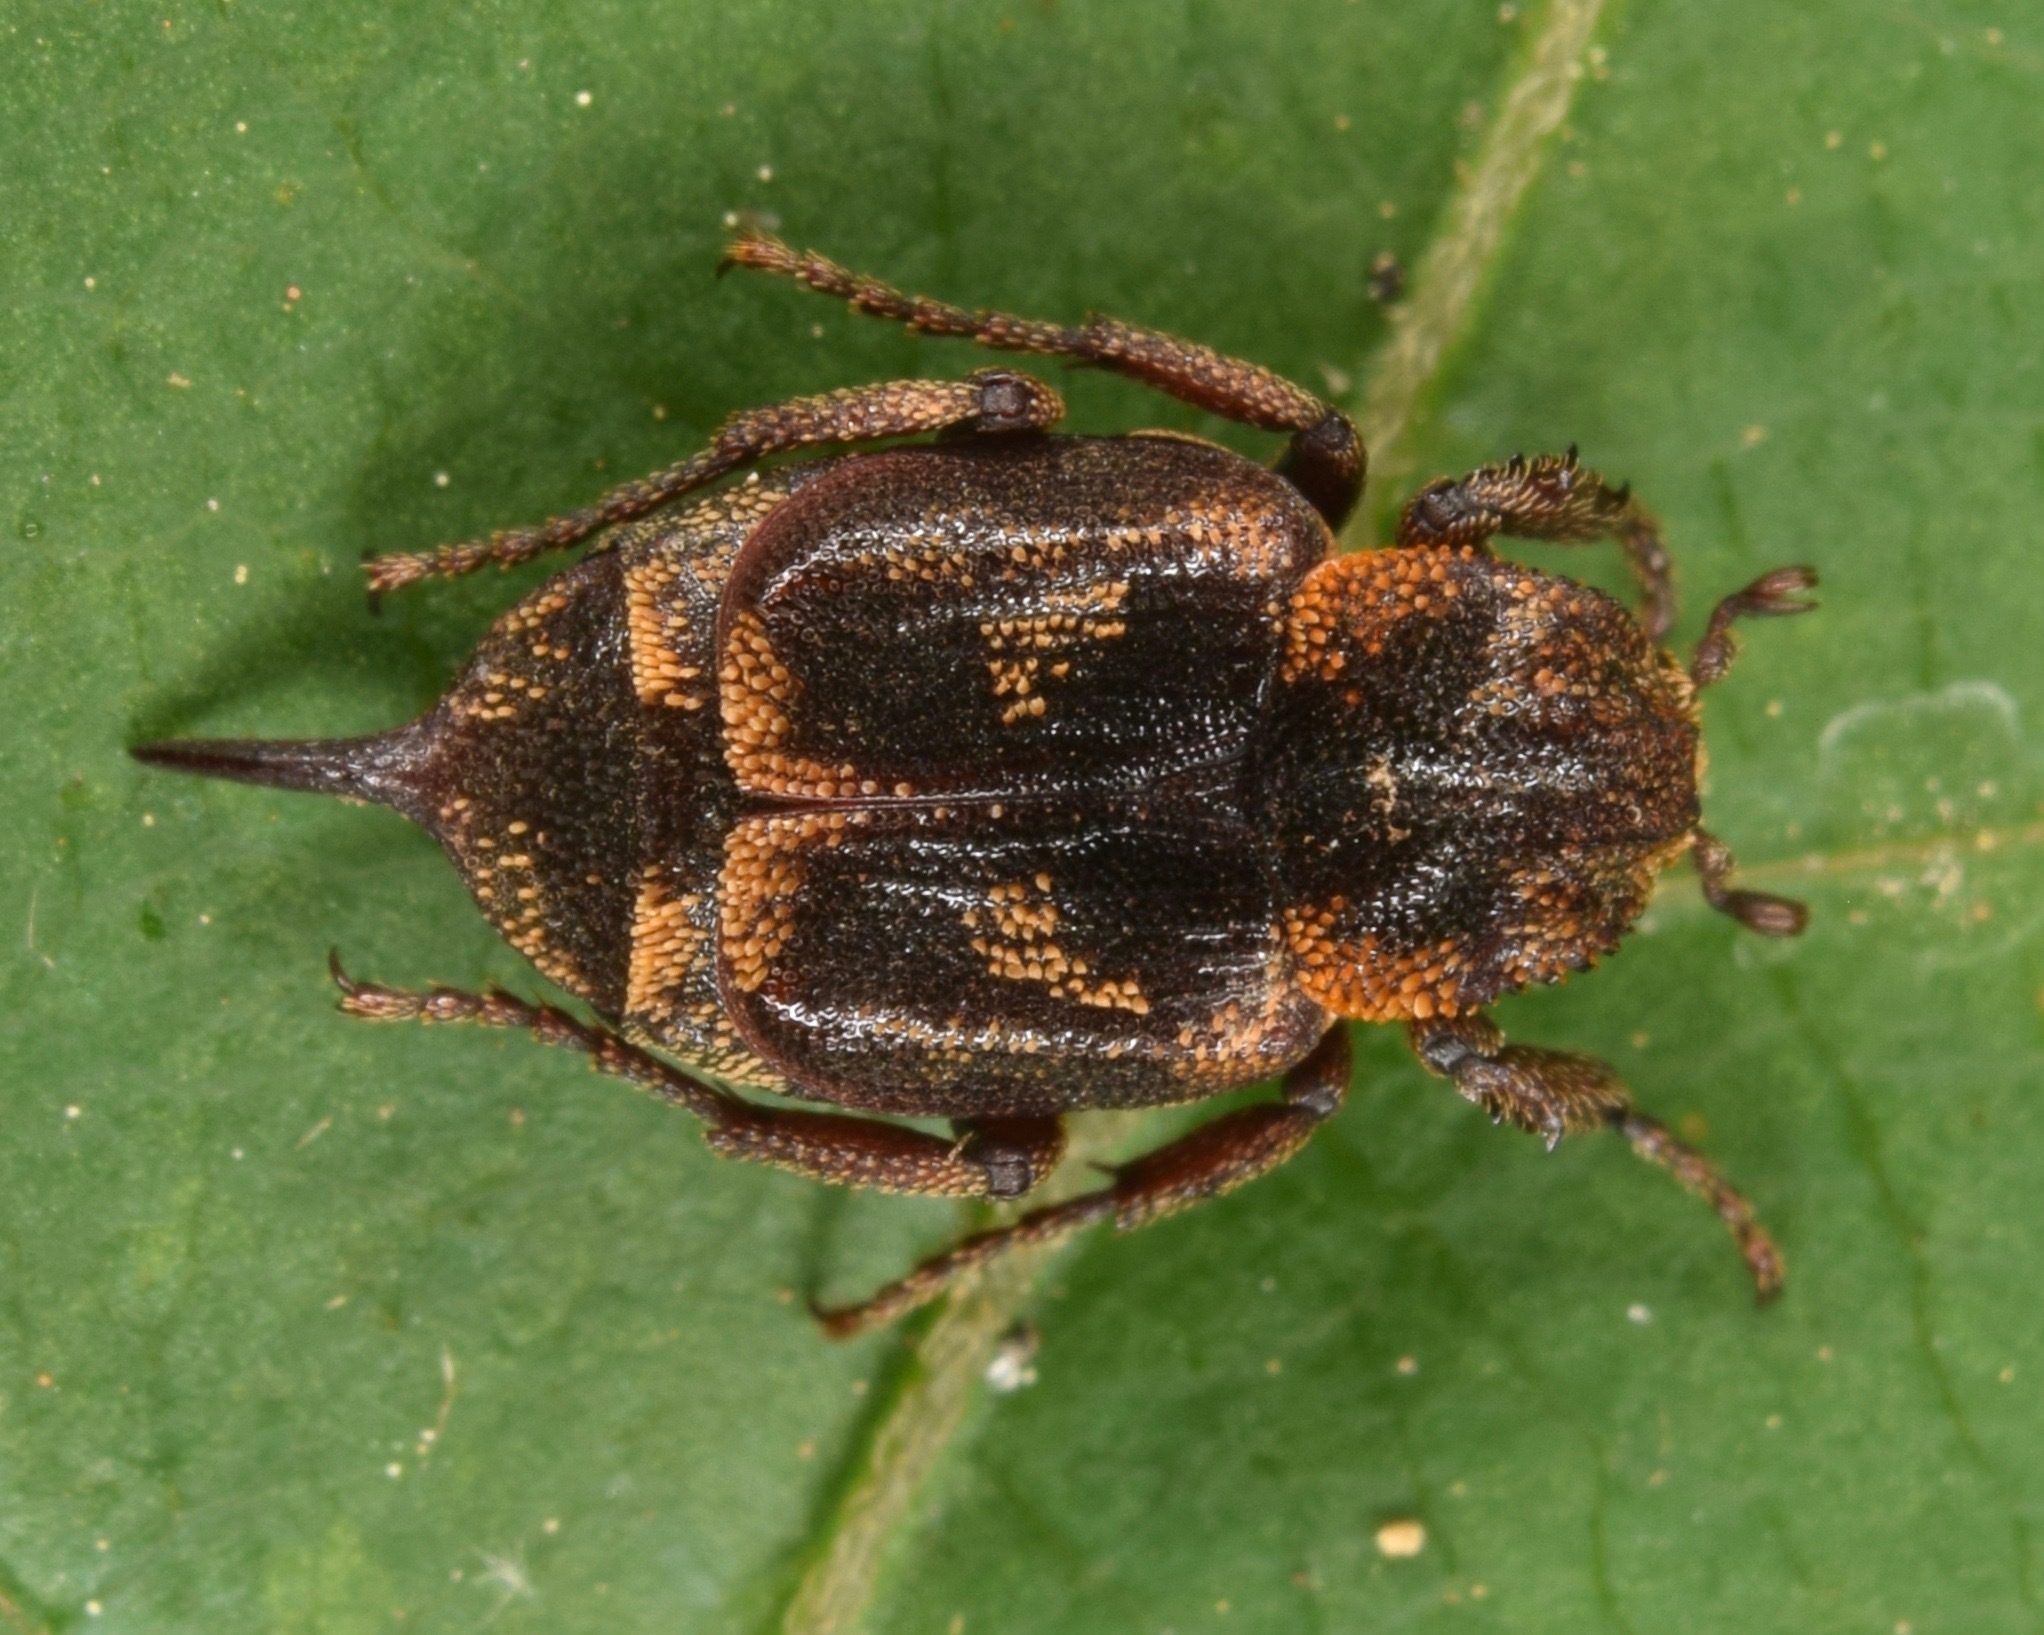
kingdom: Animalia
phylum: Arthropoda
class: Insecta
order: Coleoptera
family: Scarabaeidae
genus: Valgus
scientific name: Valgus canaliculatus
